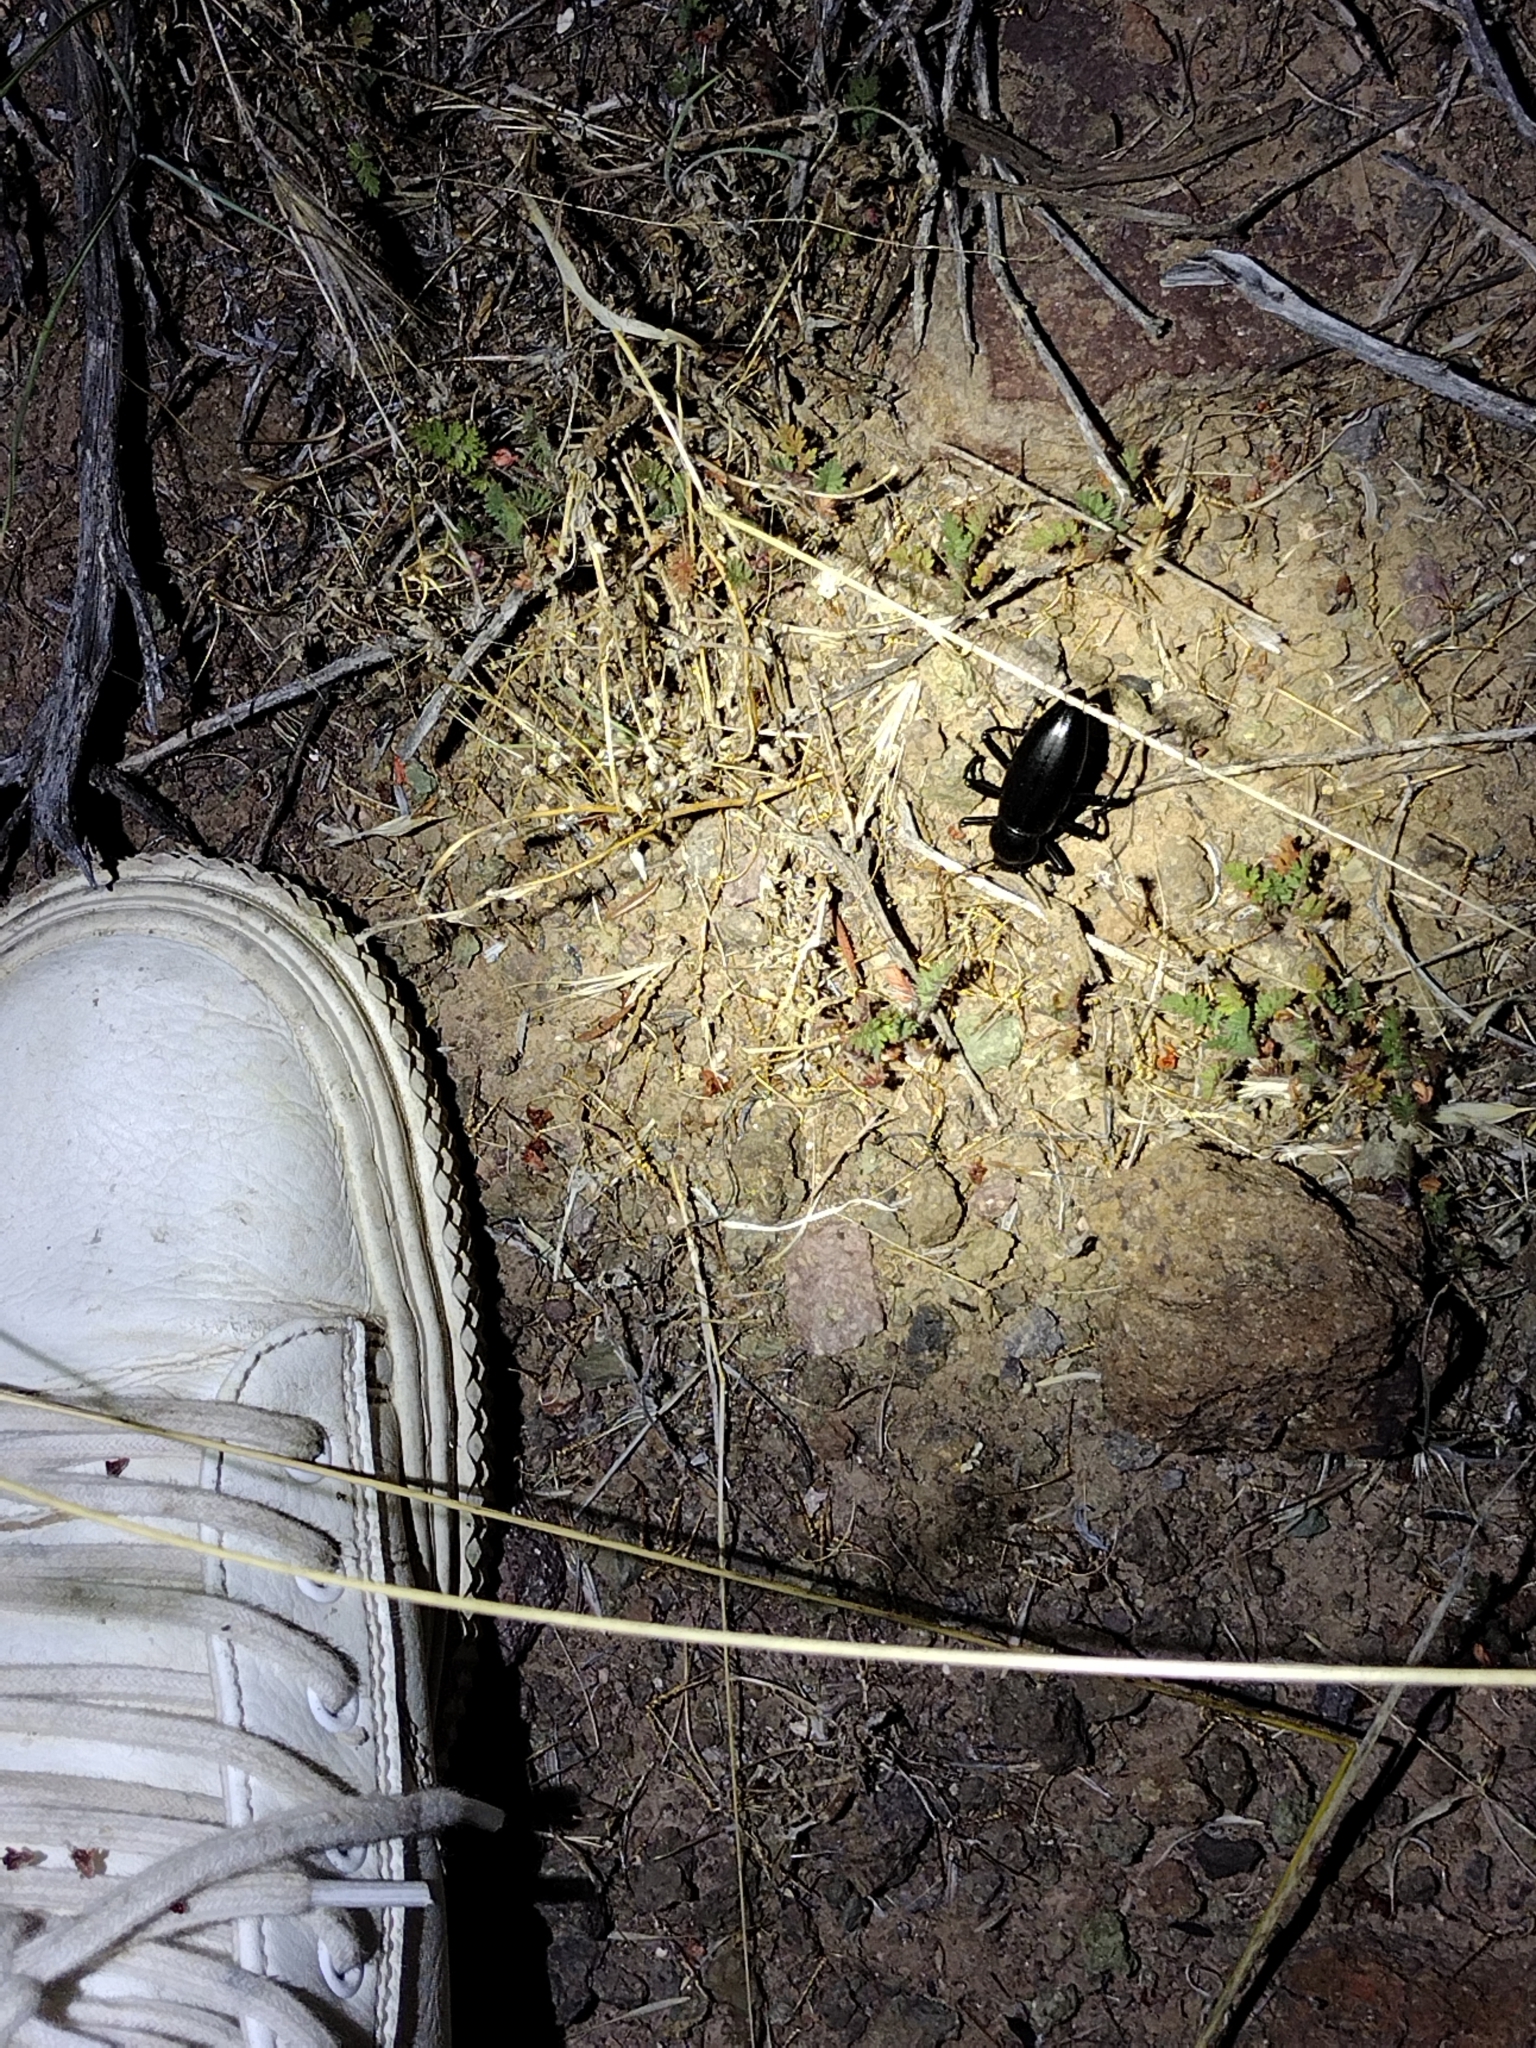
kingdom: Animalia
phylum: Arthropoda
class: Insecta
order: Coleoptera
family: Tenebrionidae
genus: Eleodes
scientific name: Eleodes gigantea
